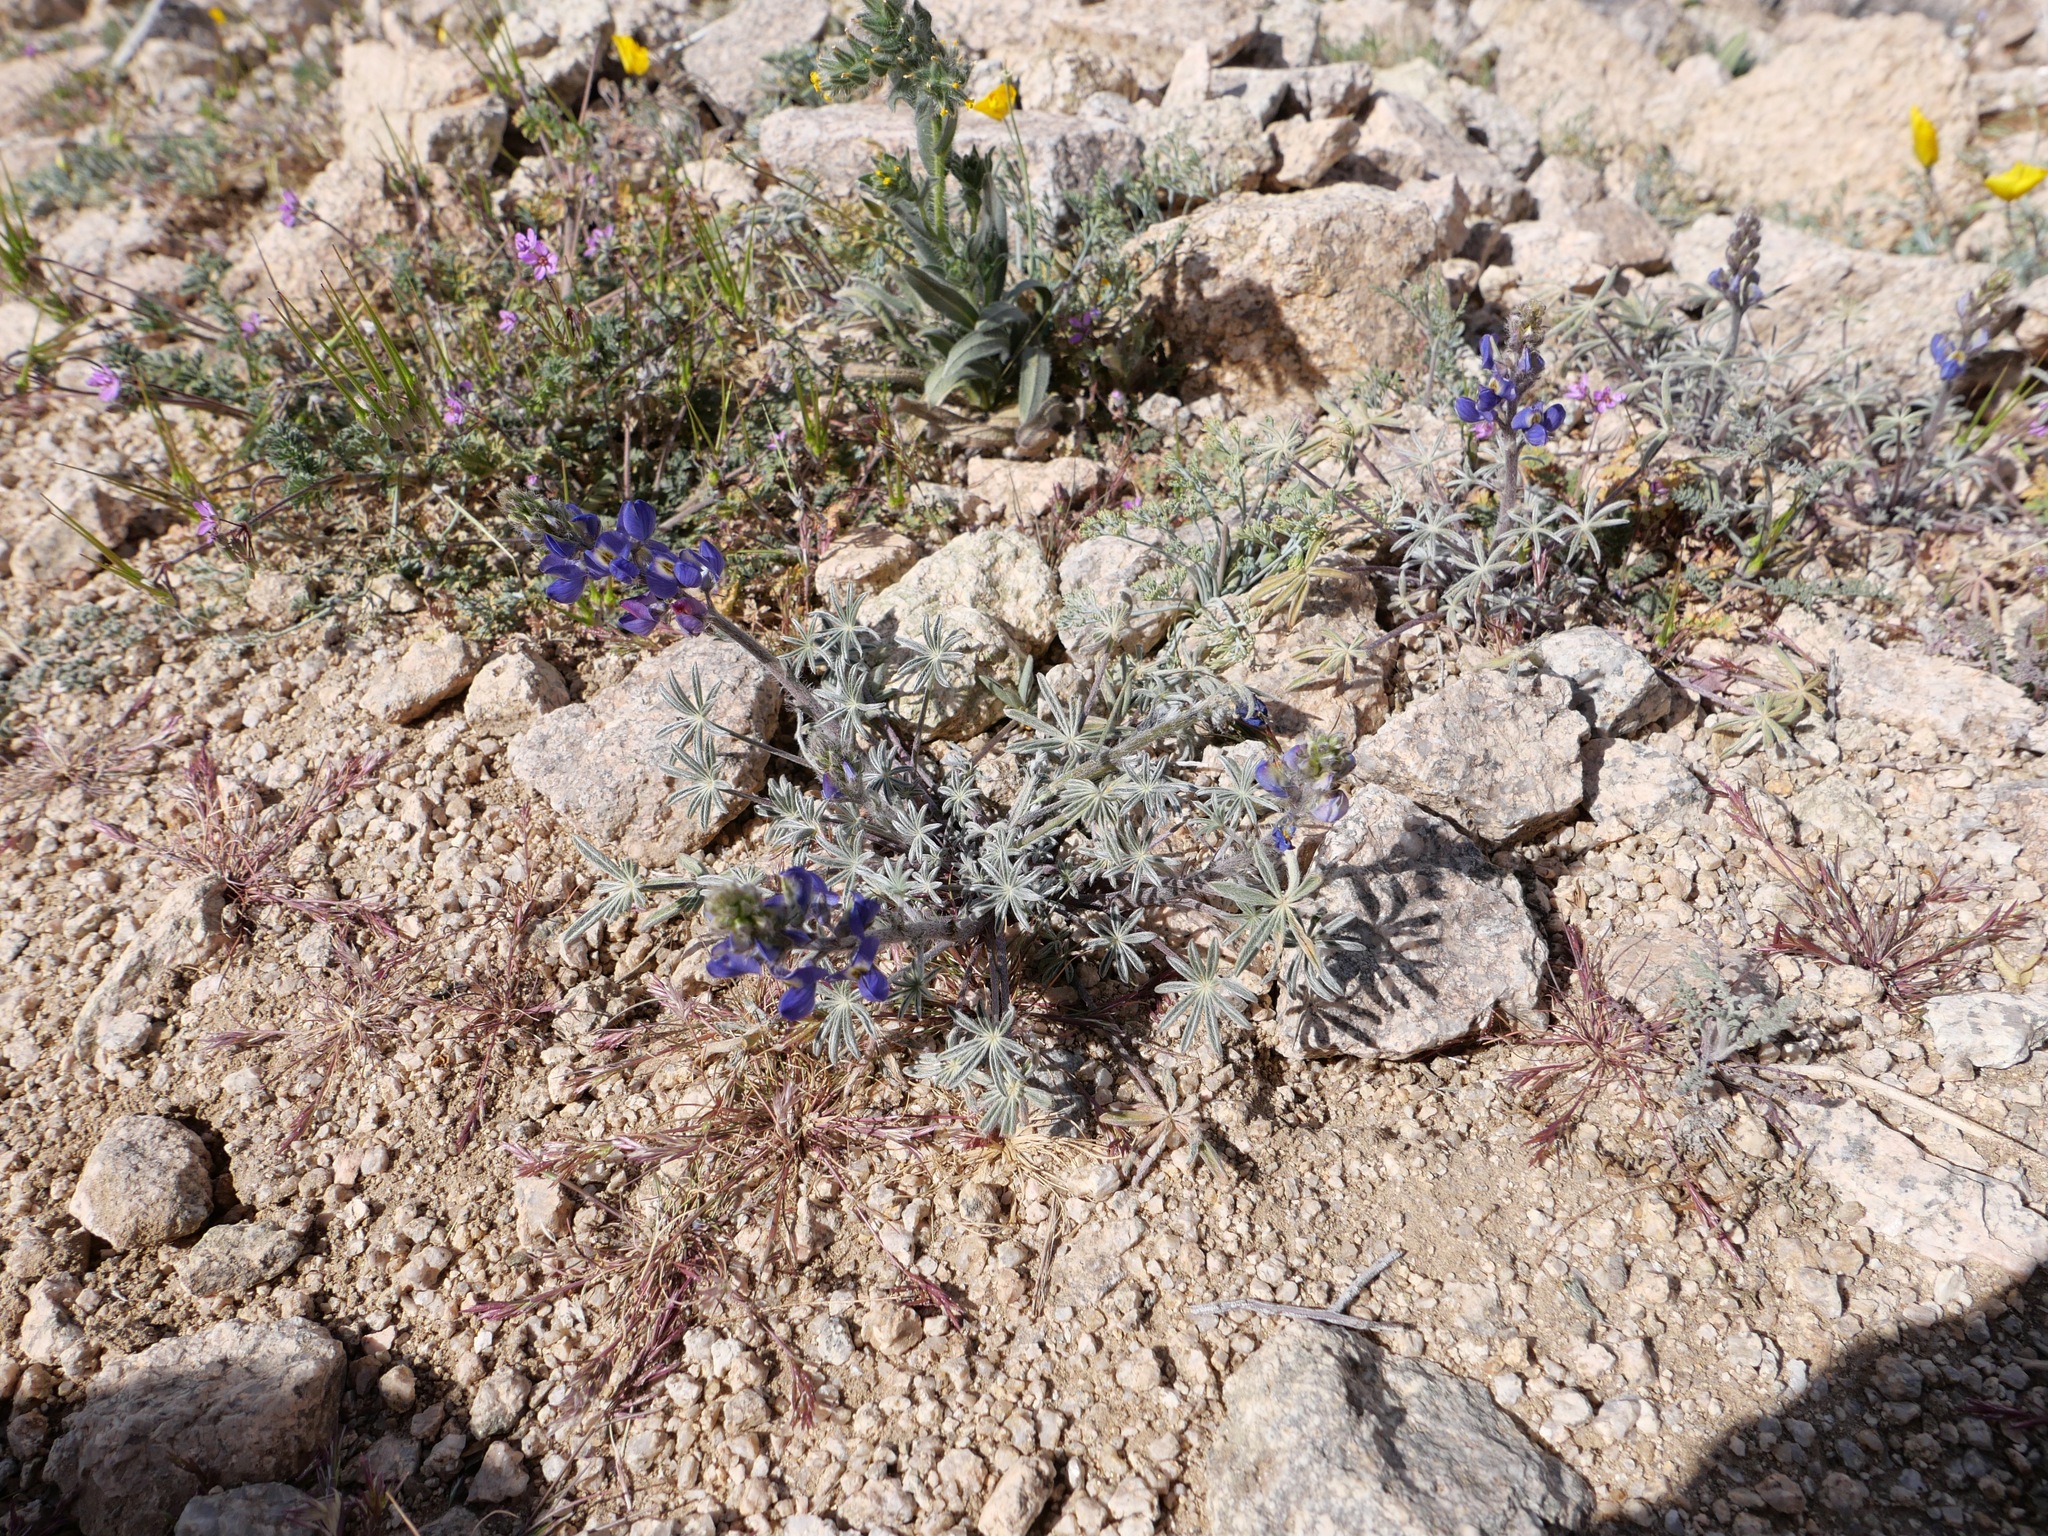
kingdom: Plantae
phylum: Tracheophyta
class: Magnoliopsida
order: Fabales
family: Fabaceae
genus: Lupinus
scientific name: Lupinus sparsiflorus
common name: Coulter's lupine
